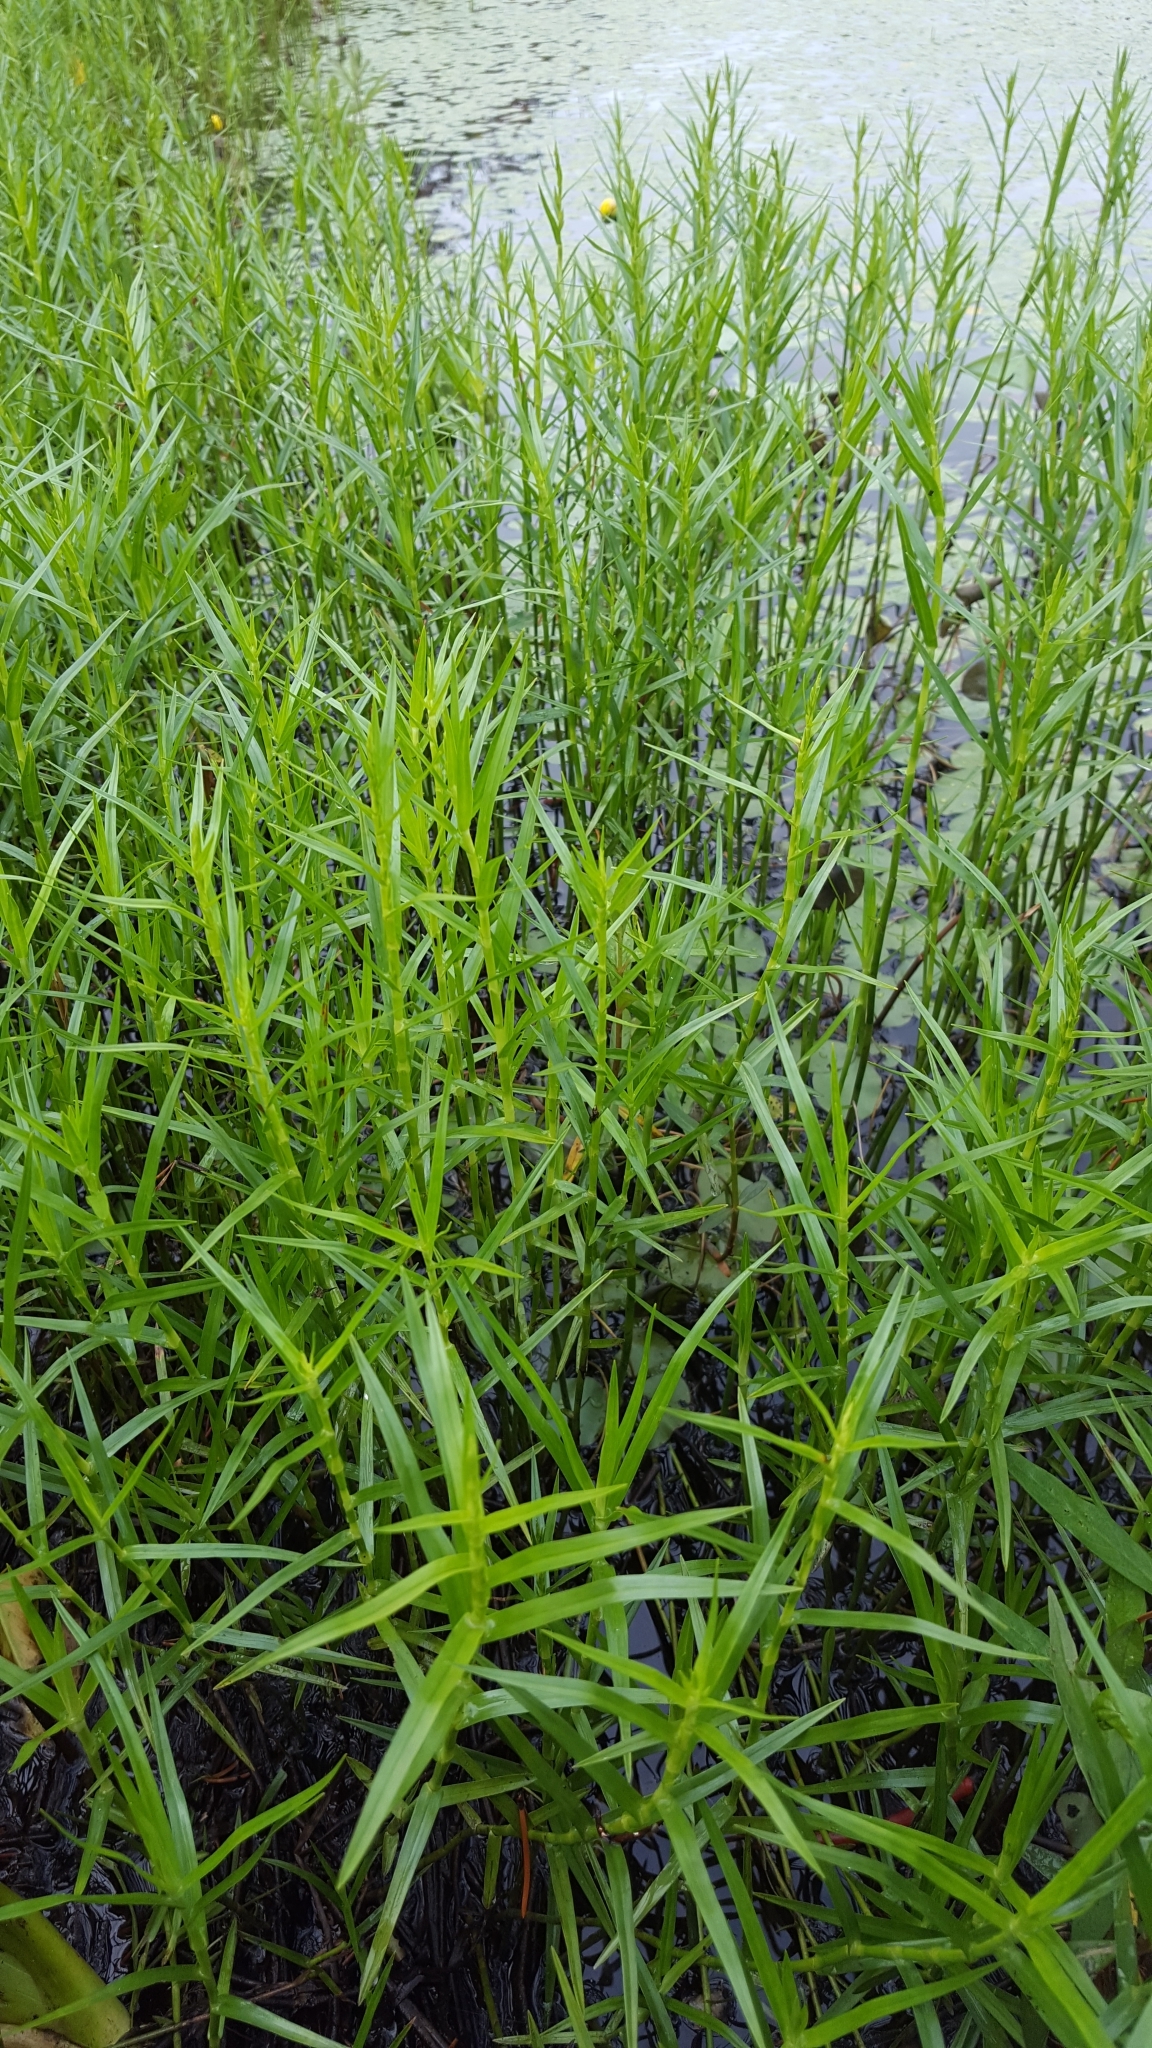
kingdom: Plantae
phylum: Tracheophyta
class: Liliopsida
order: Poales
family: Cyperaceae
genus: Dulichium
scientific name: Dulichium arundinaceum
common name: Three-way sedge
